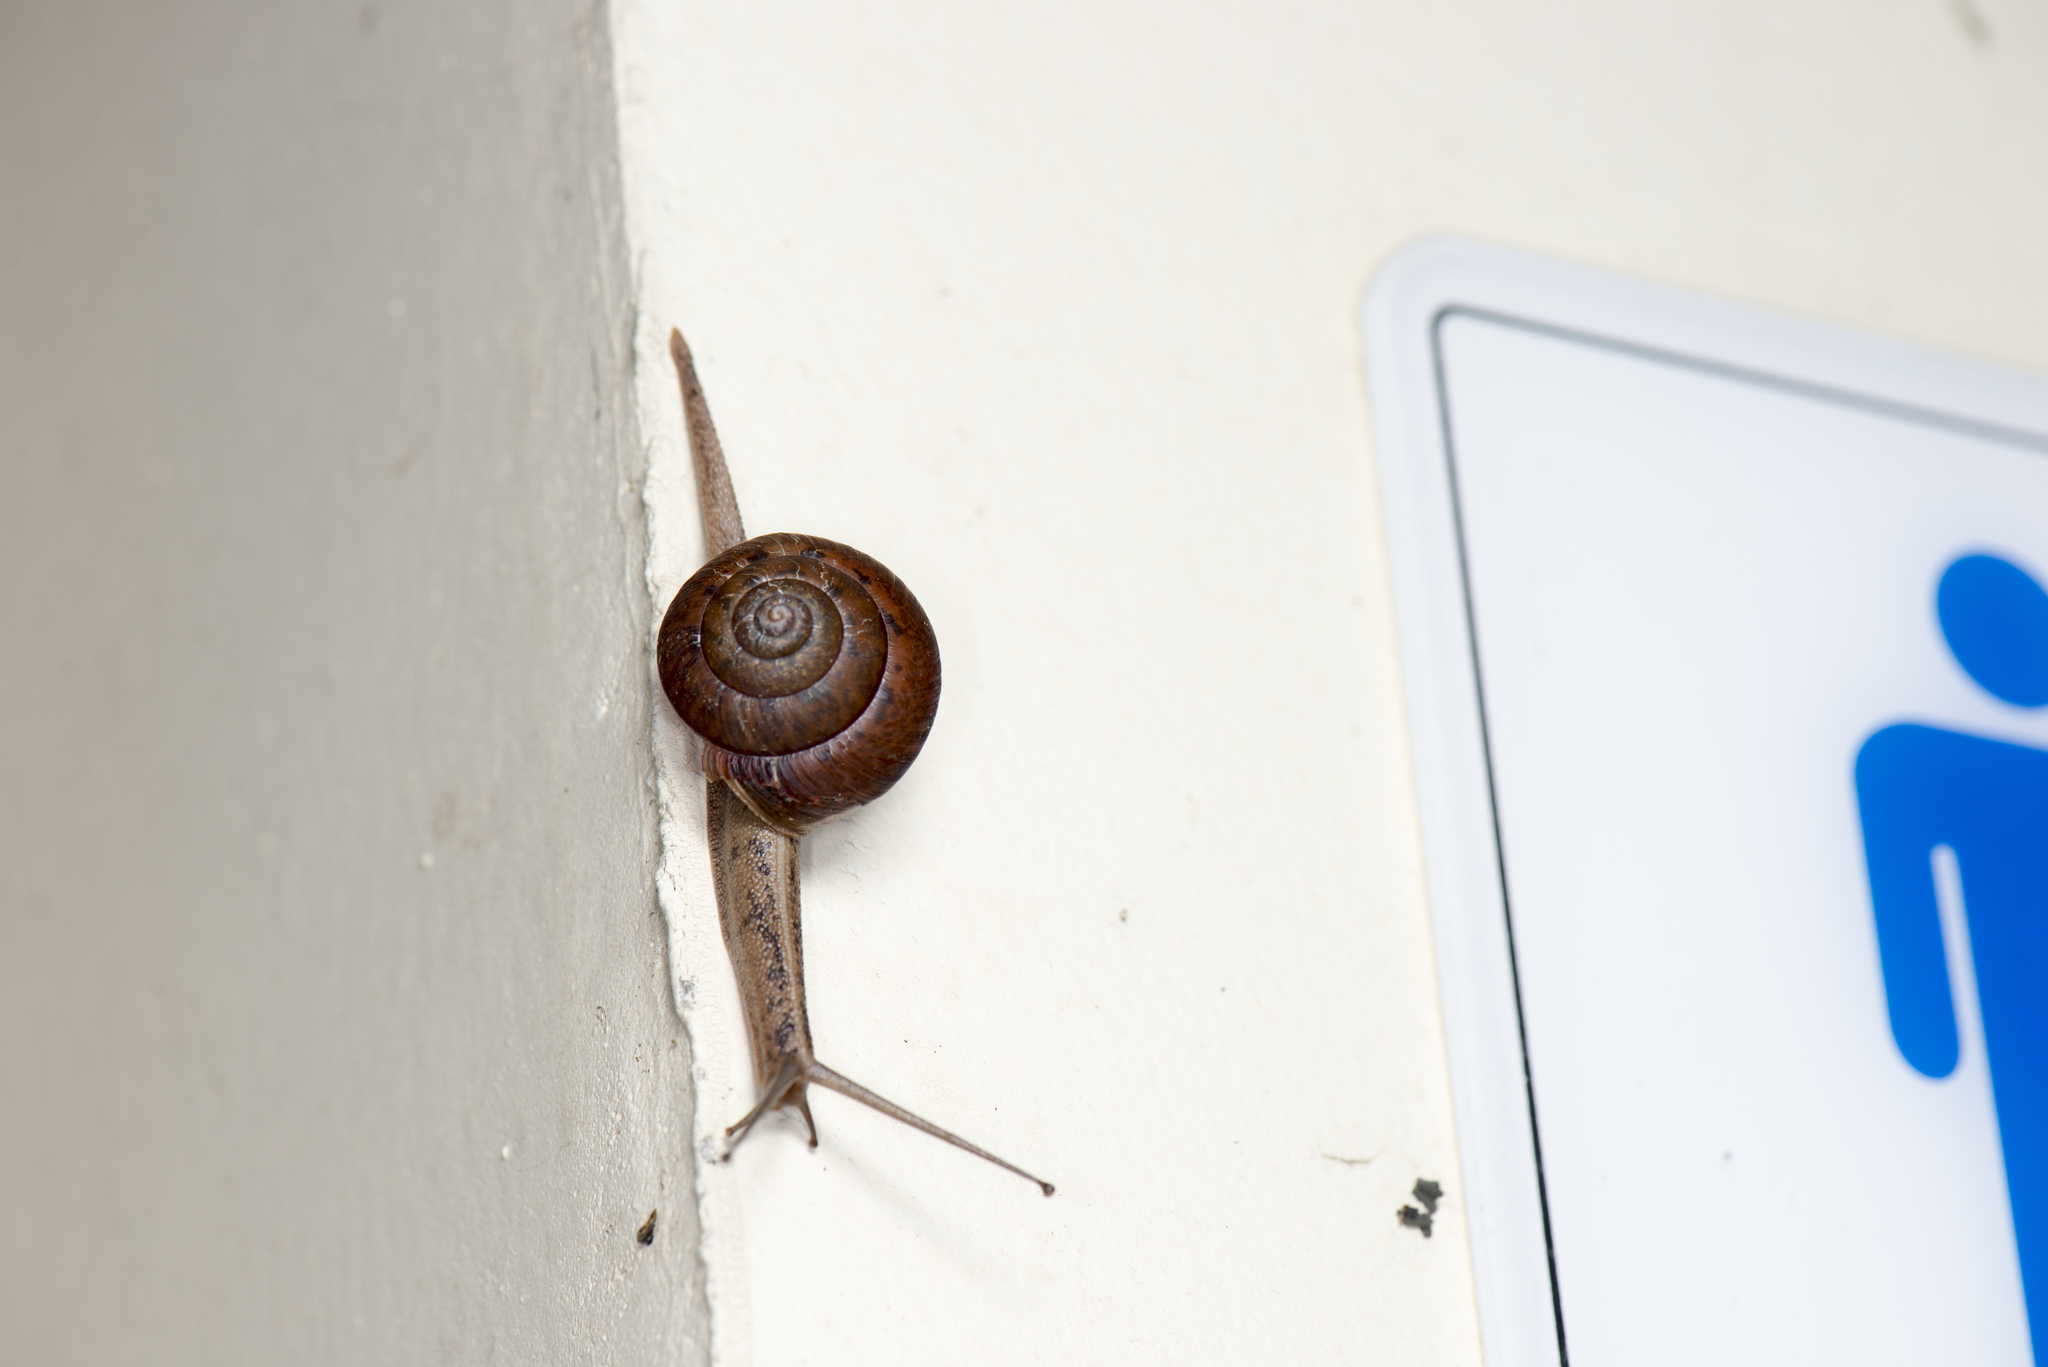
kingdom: Animalia
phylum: Mollusca
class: Gastropoda
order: Stylommatophora
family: Camaenidae
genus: Satsuma
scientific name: Satsuma nux
